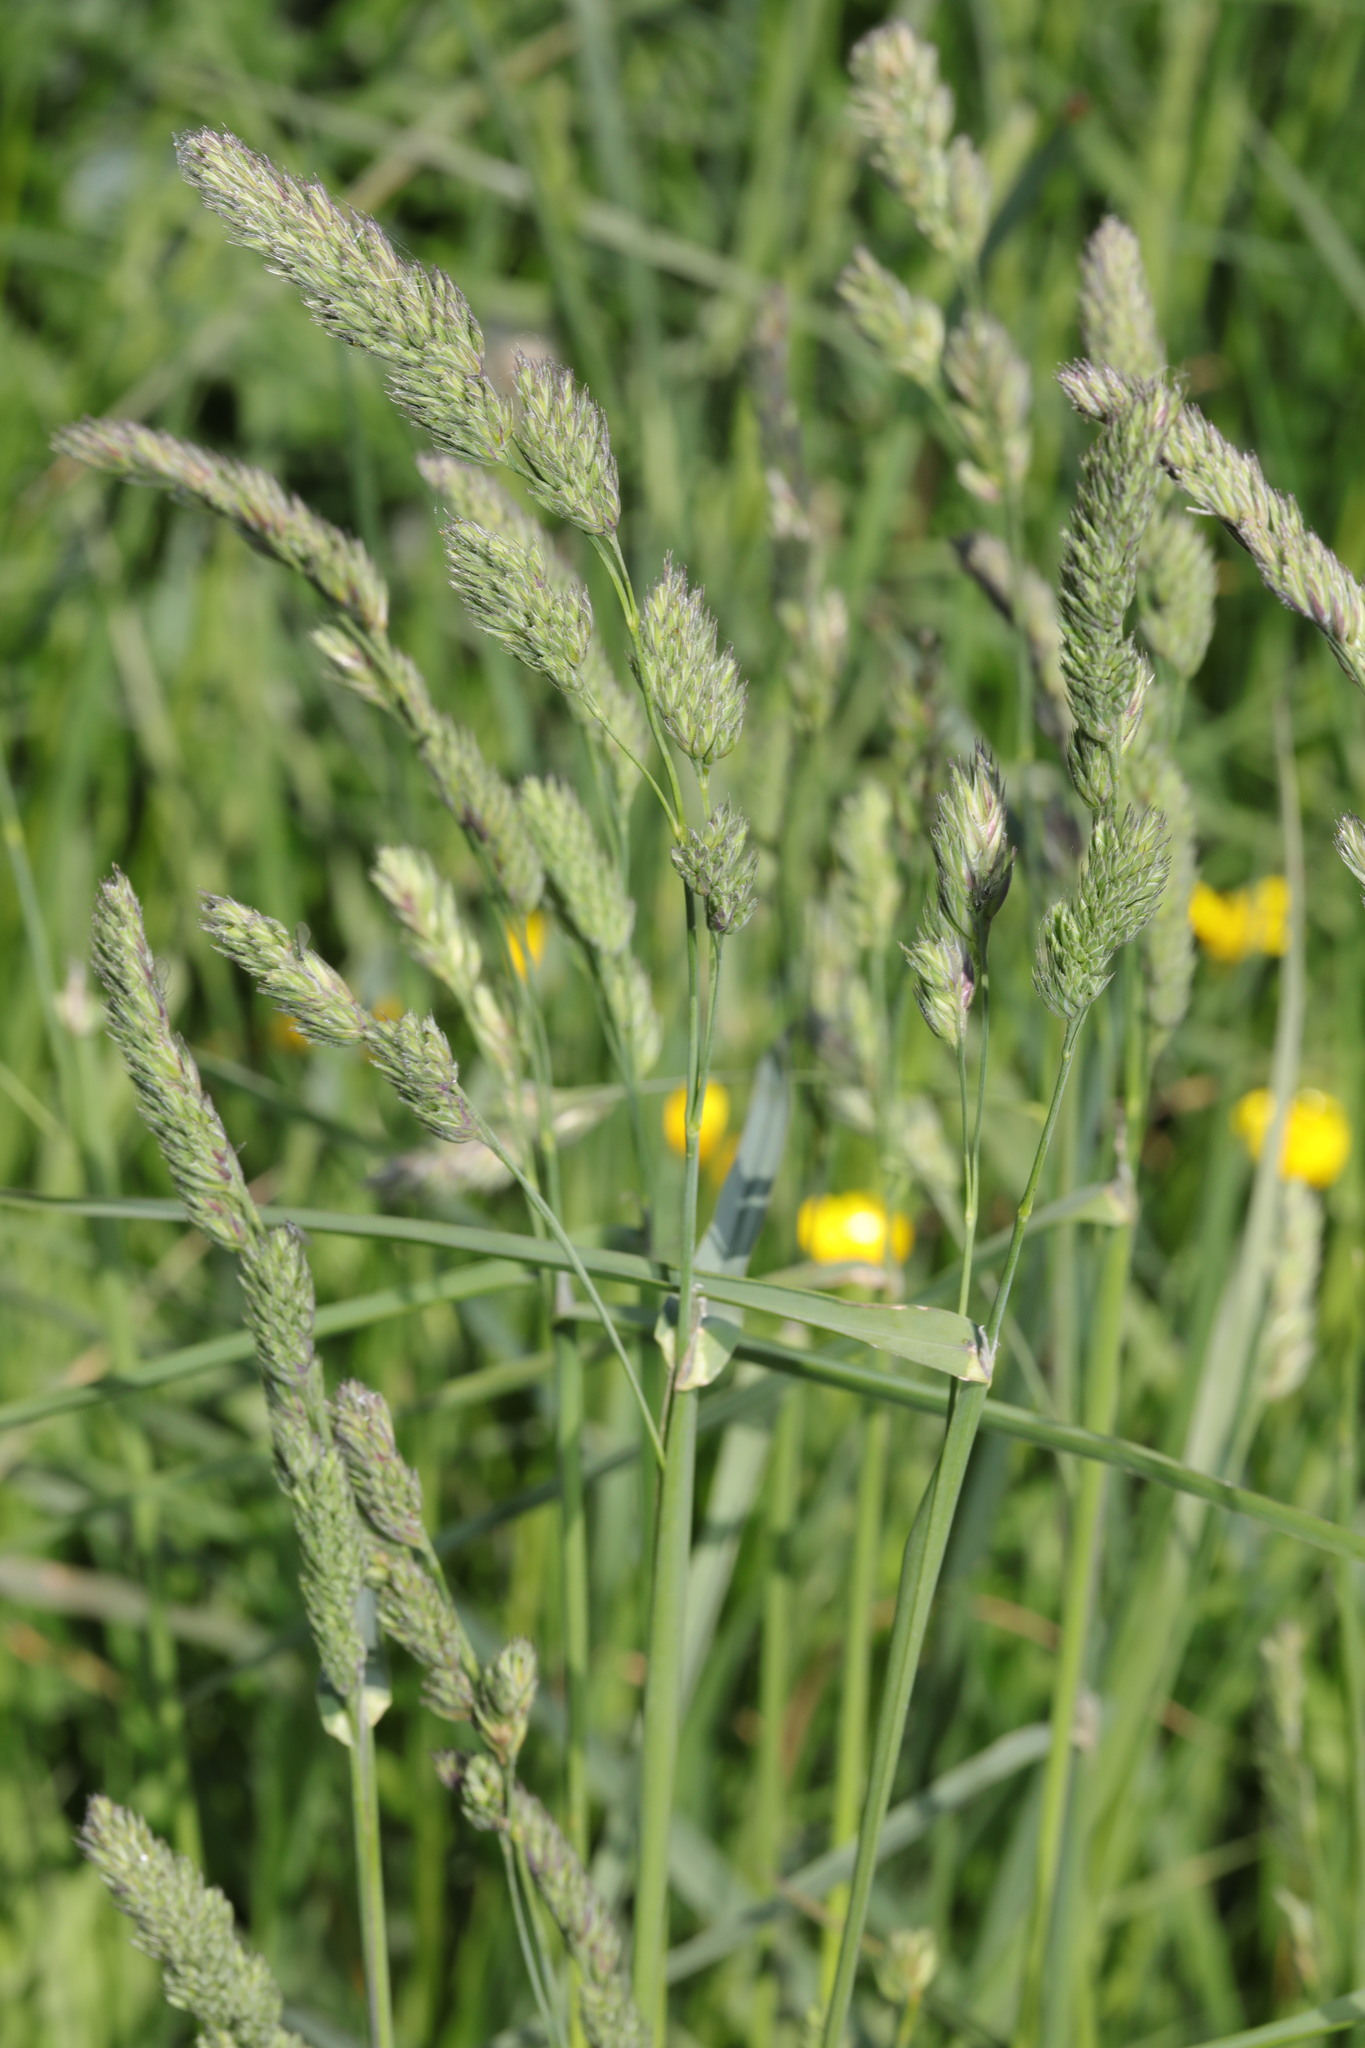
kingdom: Plantae
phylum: Tracheophyta
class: Liliopsida
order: Poales
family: Poaceae
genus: Dactylis
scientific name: Dactylis glomerata
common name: Orchardgrass
